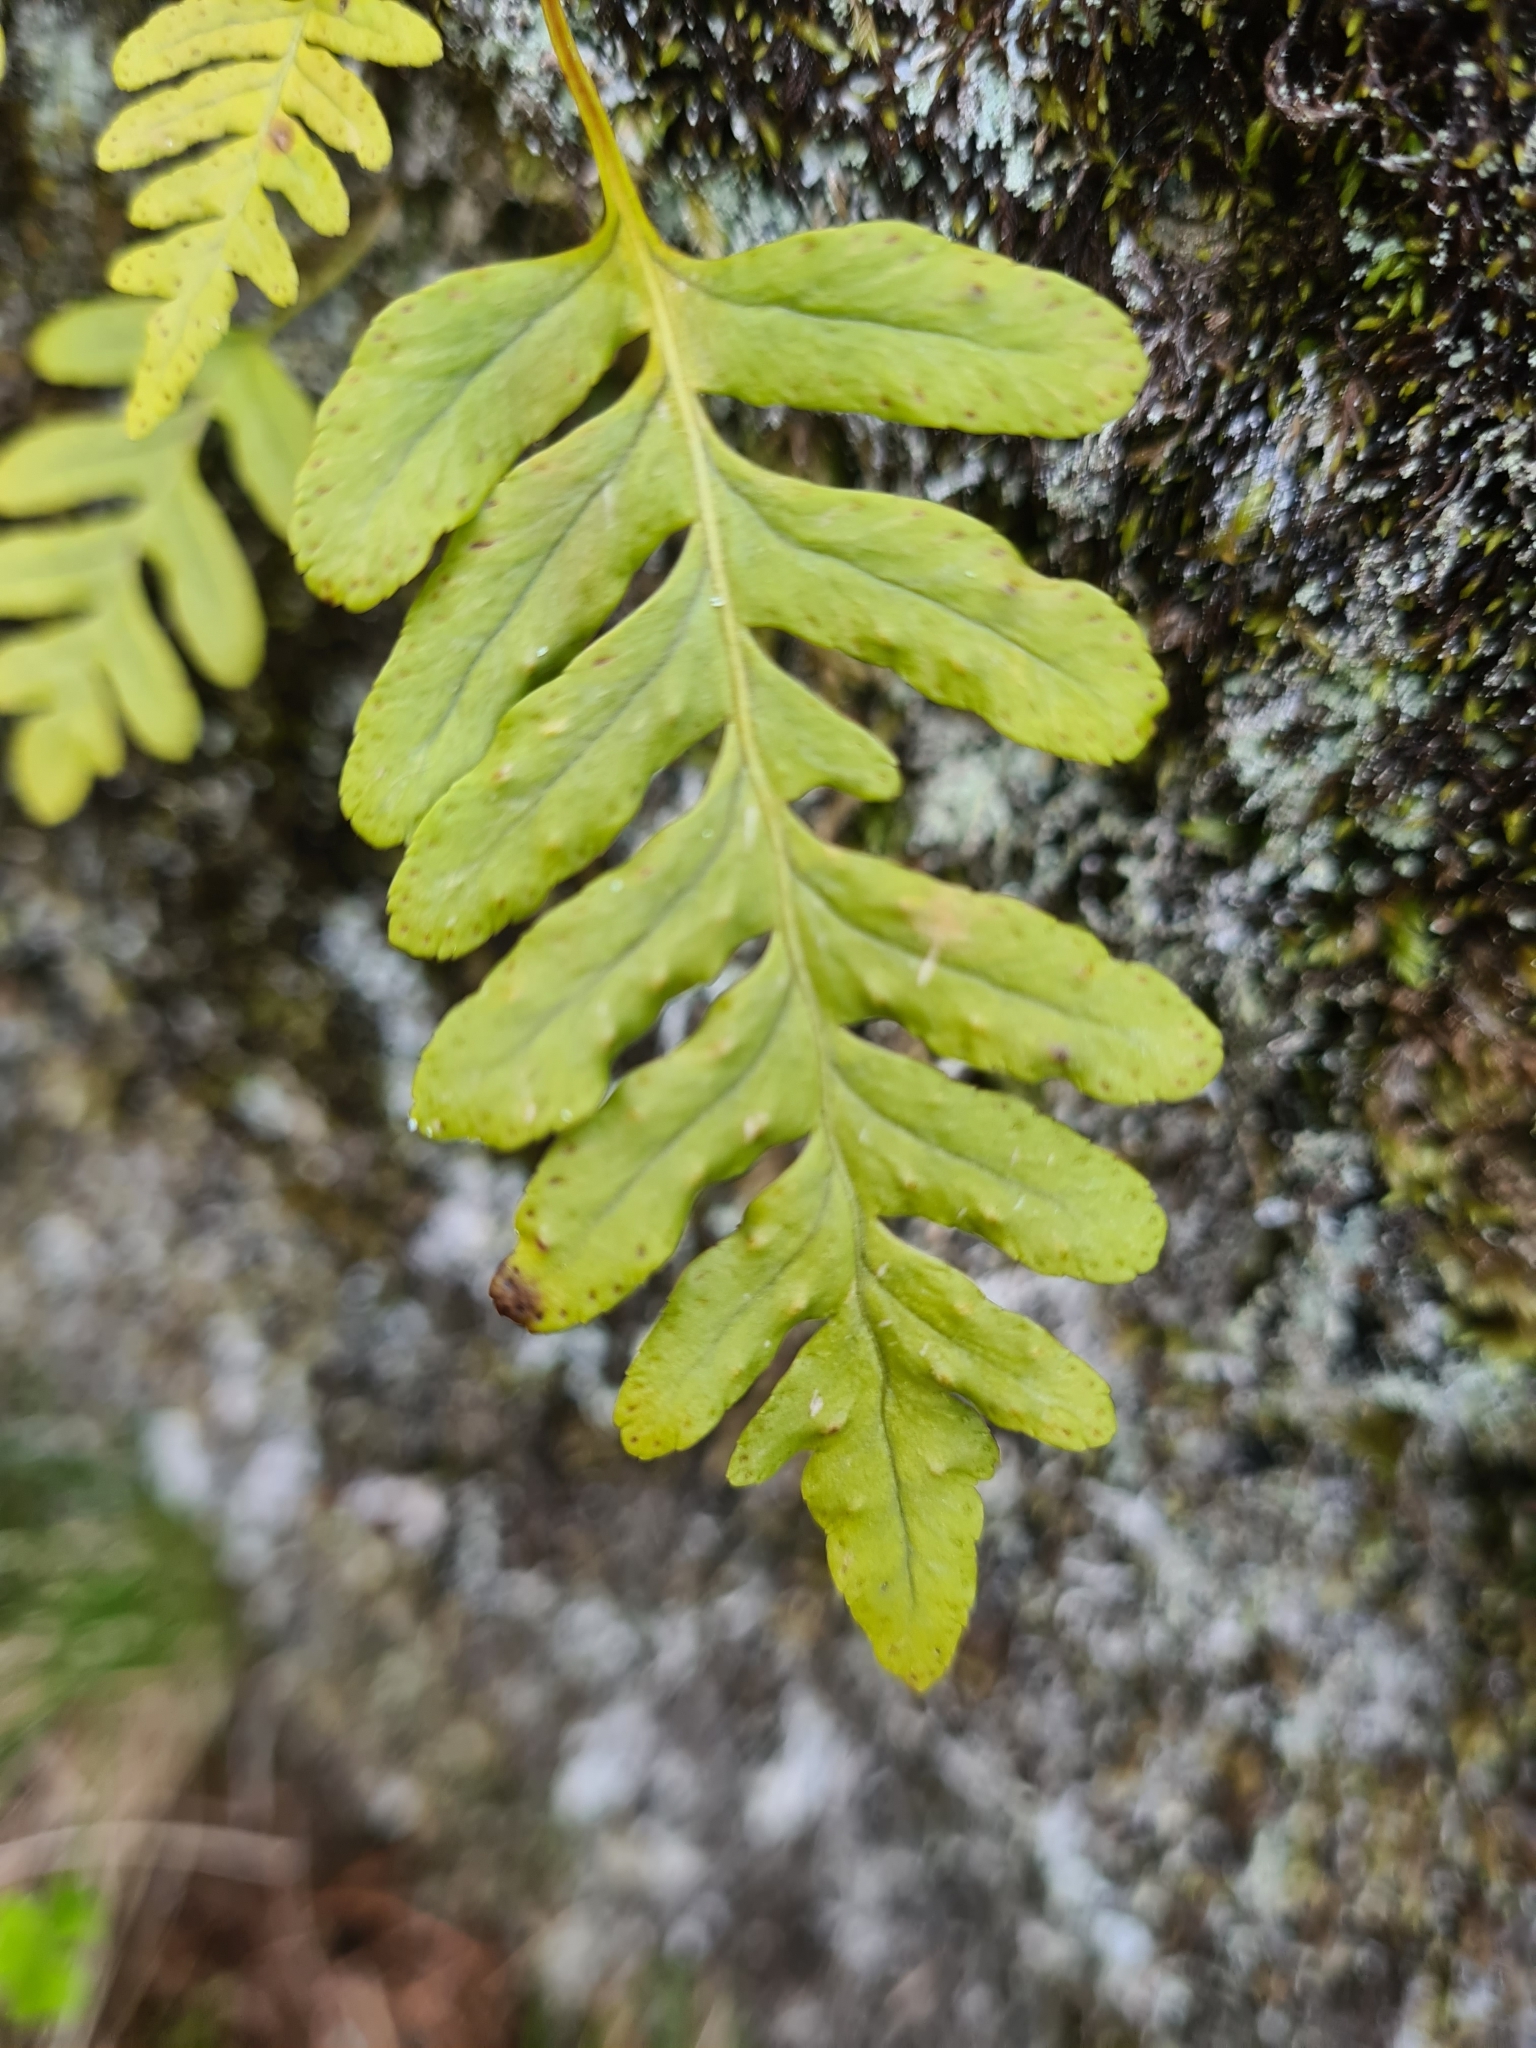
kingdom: Plantae
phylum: Tracheophyta
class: Polypodiopsida
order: Polypodiales
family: Polypodiaceae
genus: Polypodium
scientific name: Polypodium vulgare
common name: Common polypody
